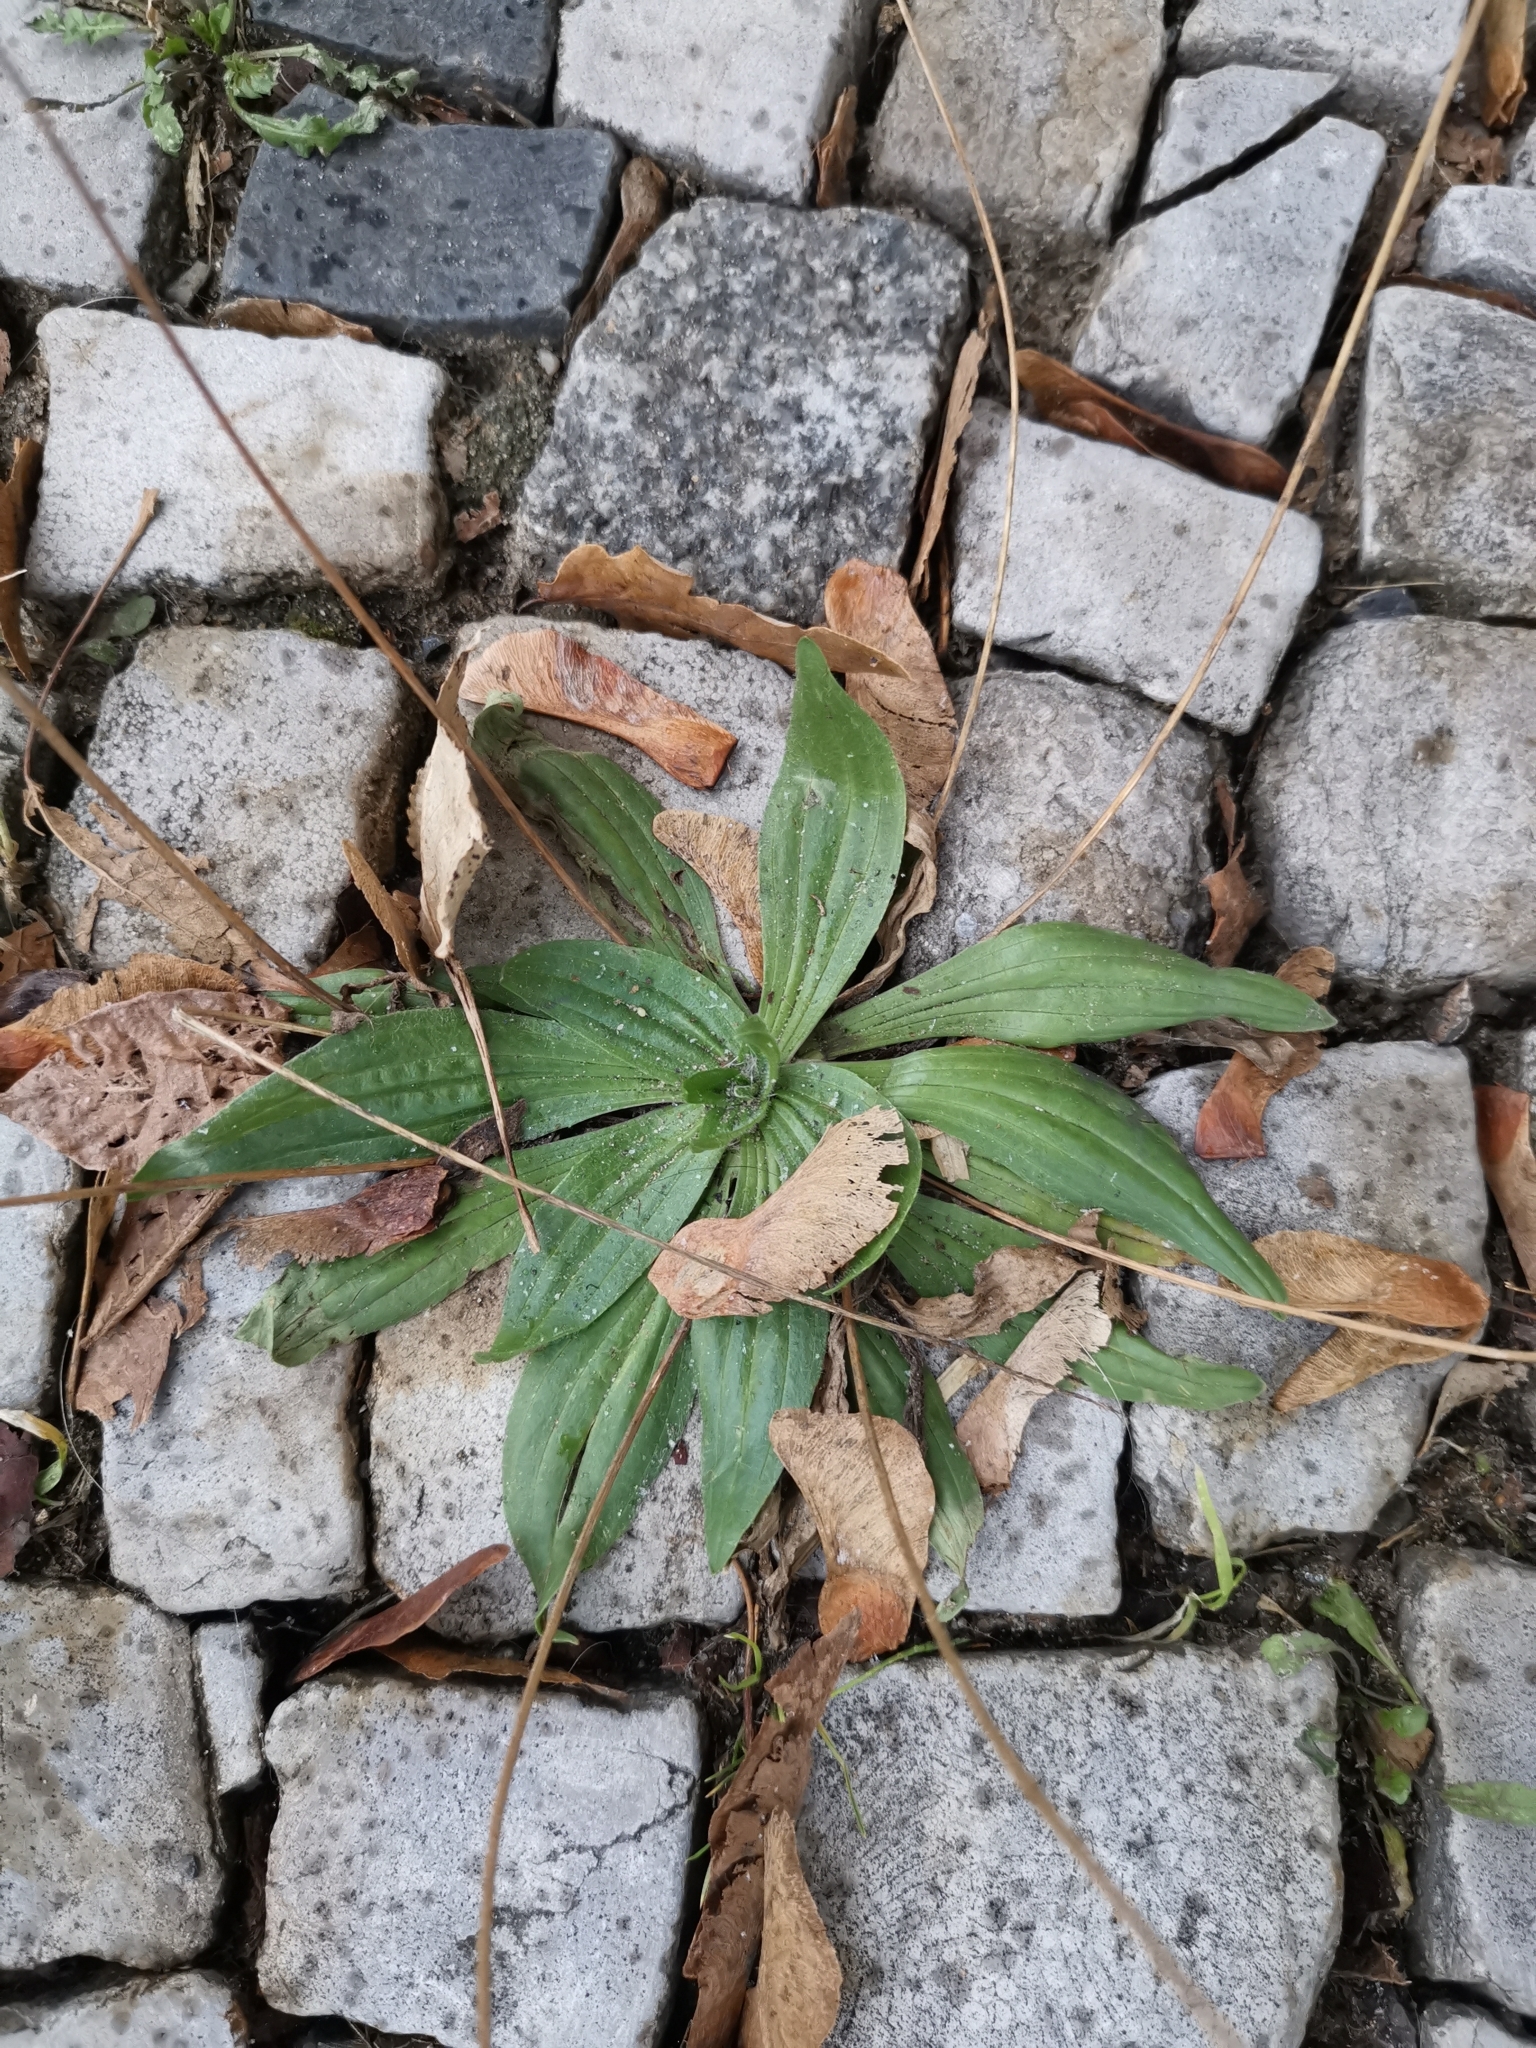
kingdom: Plantae
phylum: Tracheophyta
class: Magnoliopsida
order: Lamiales
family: Plantaginaceae
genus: Plantago
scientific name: Plantago lanceolata
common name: Ribwort plantain
